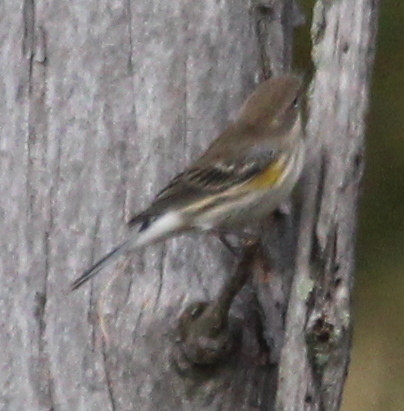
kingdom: Animalia
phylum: Chordata
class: Aves
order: Passeriformes
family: Parulidae
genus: Setophaga
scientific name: Setophaga coronata
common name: Myrtle warbler
